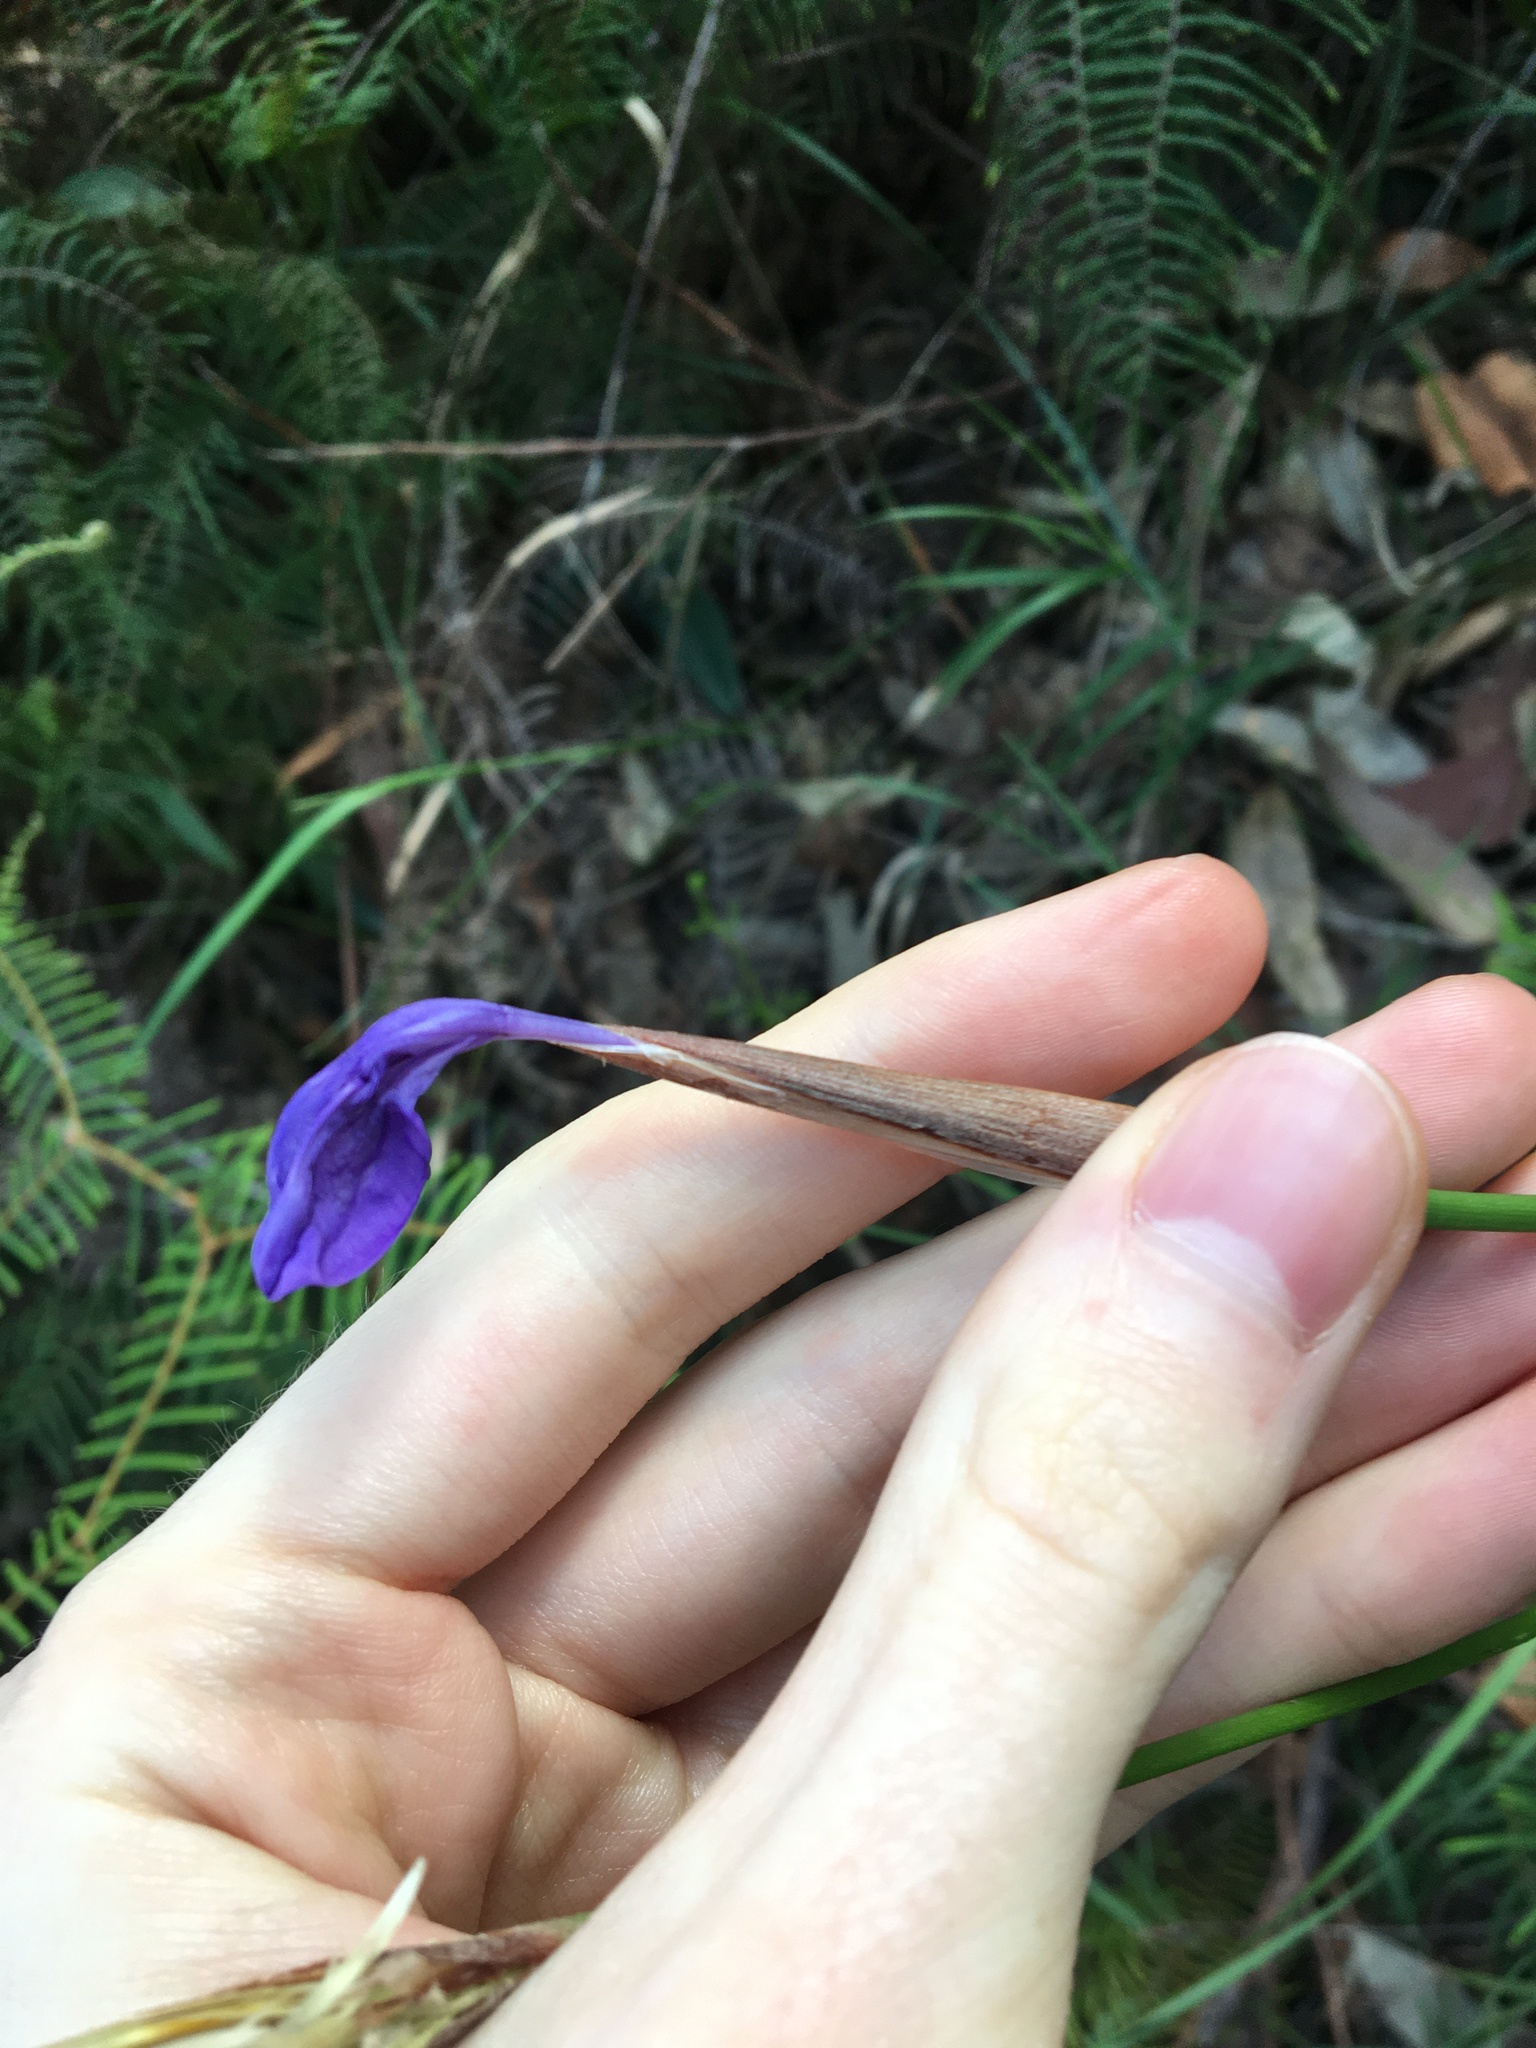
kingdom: Plantae
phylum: Tracheophyta
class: Liliopsida
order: Asparagales
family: Iridaceae
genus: Patersonia
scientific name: Patersonia glabrata
